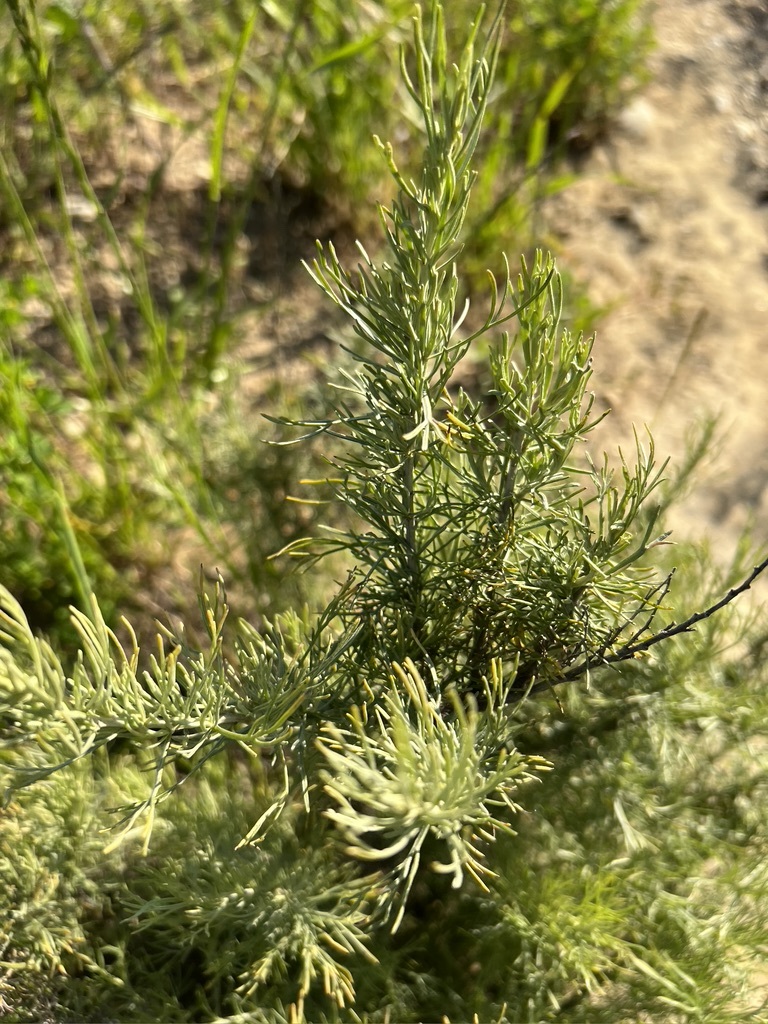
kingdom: Plantae
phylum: Tracheophyta
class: Magnoliopsida
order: Asterales
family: Asteraceae
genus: Artemisia
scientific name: Artemisia californica
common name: California sagebrush
